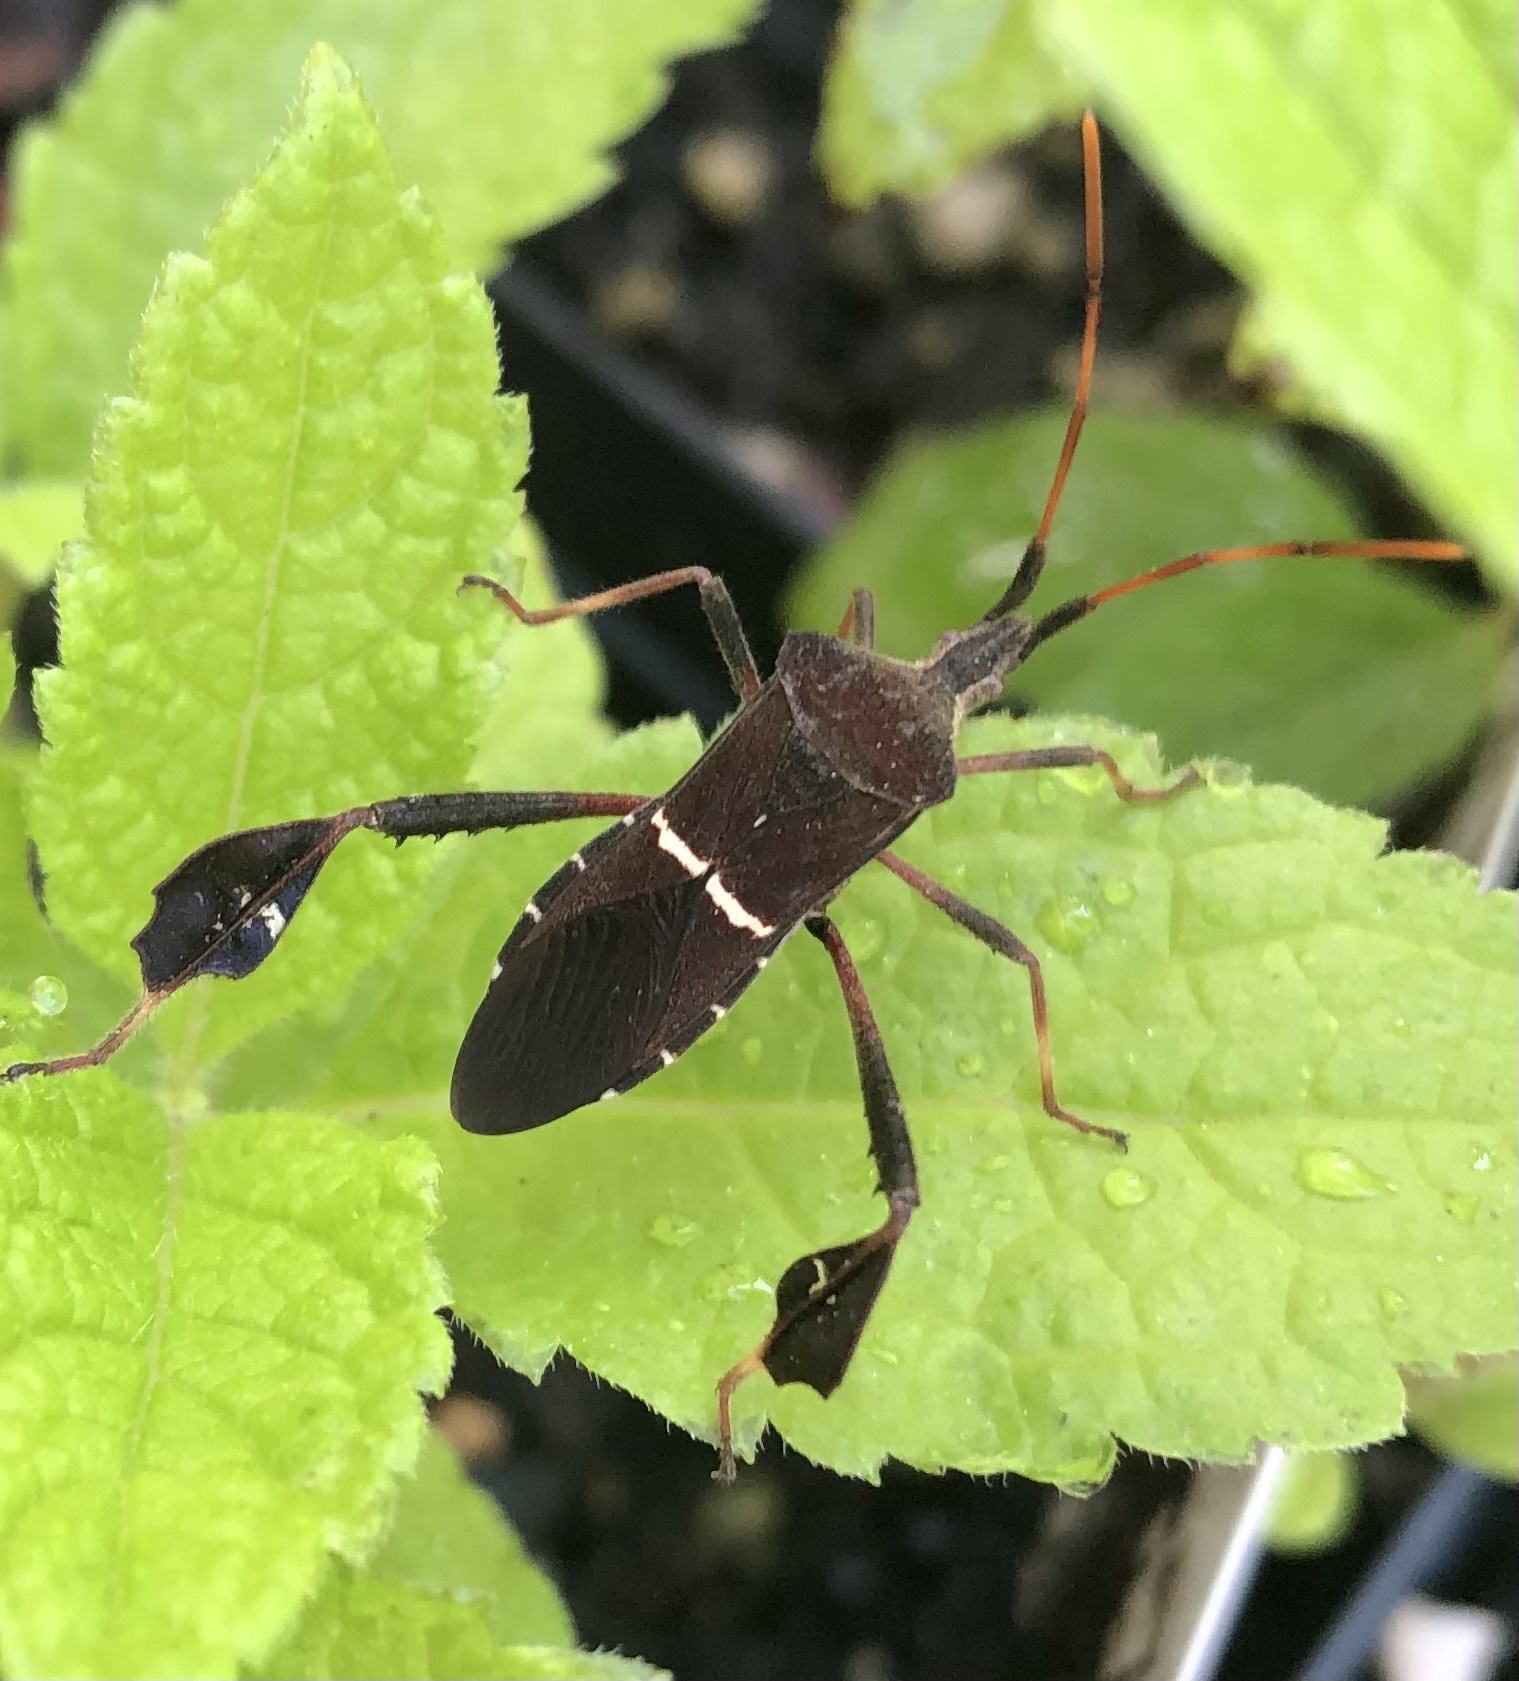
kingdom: Animalia
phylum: Arthropoda
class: Insecta
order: Hemiptera
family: Coreidae
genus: Leptoglossus
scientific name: Leptoglossus phyllopus
